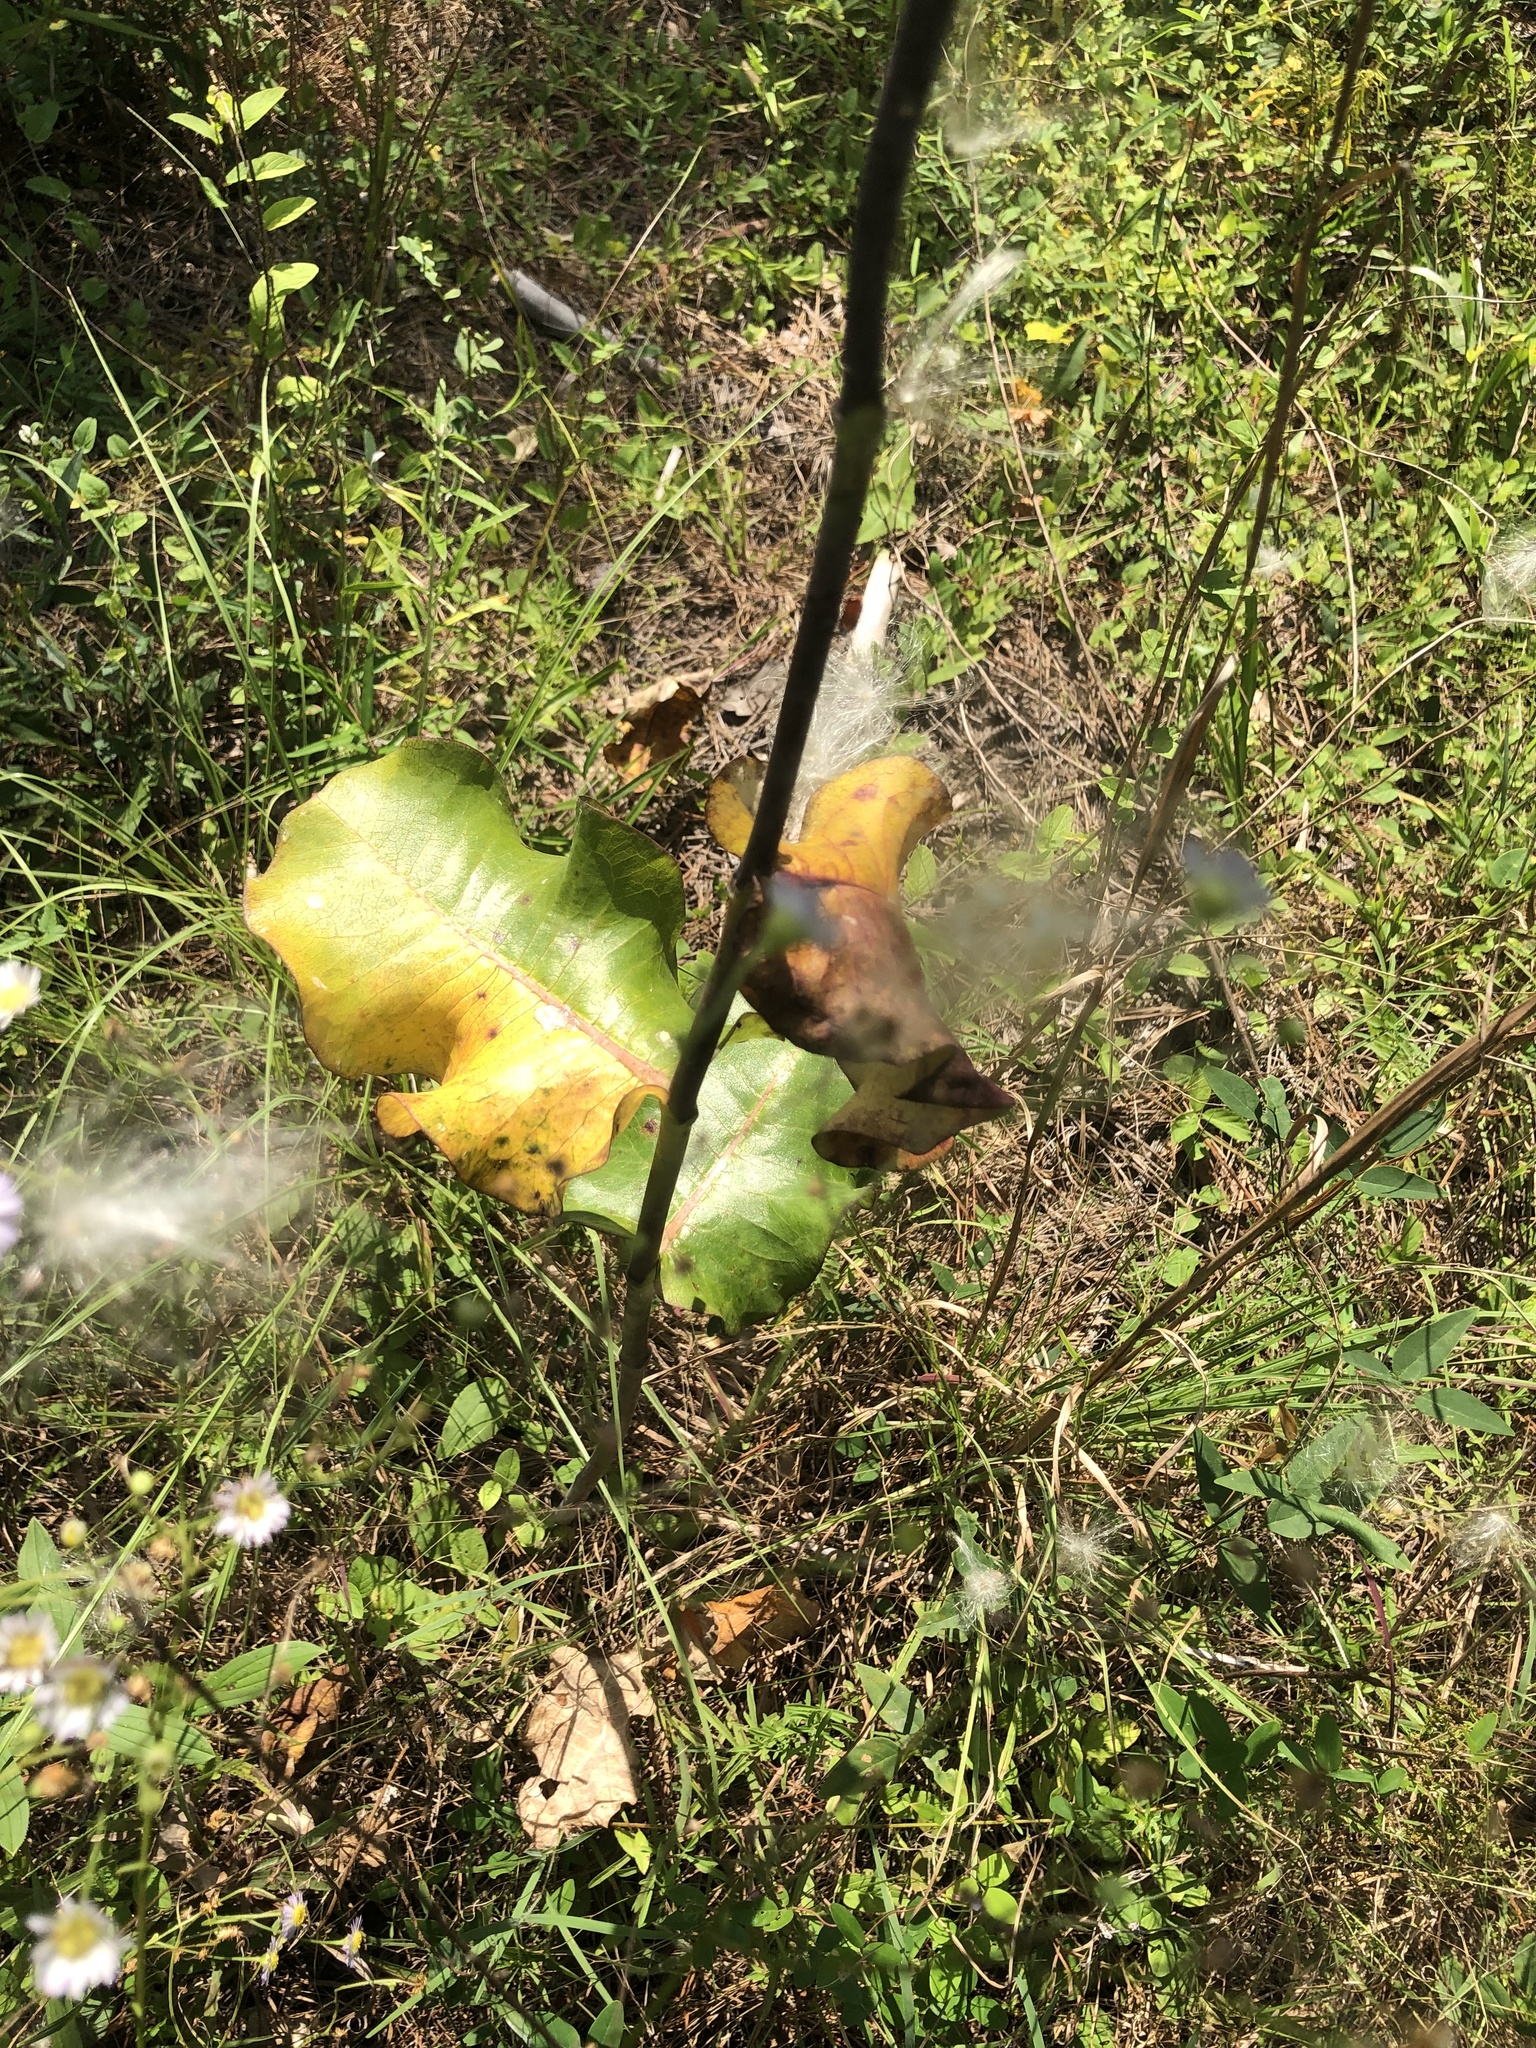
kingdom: Plantae
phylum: Tracheophyta
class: Magnoliopsida
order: Gentianales
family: Apocynaceae
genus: Asclepias
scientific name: Asclepias amplexicaulis
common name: Blunt-leaf milkweed
